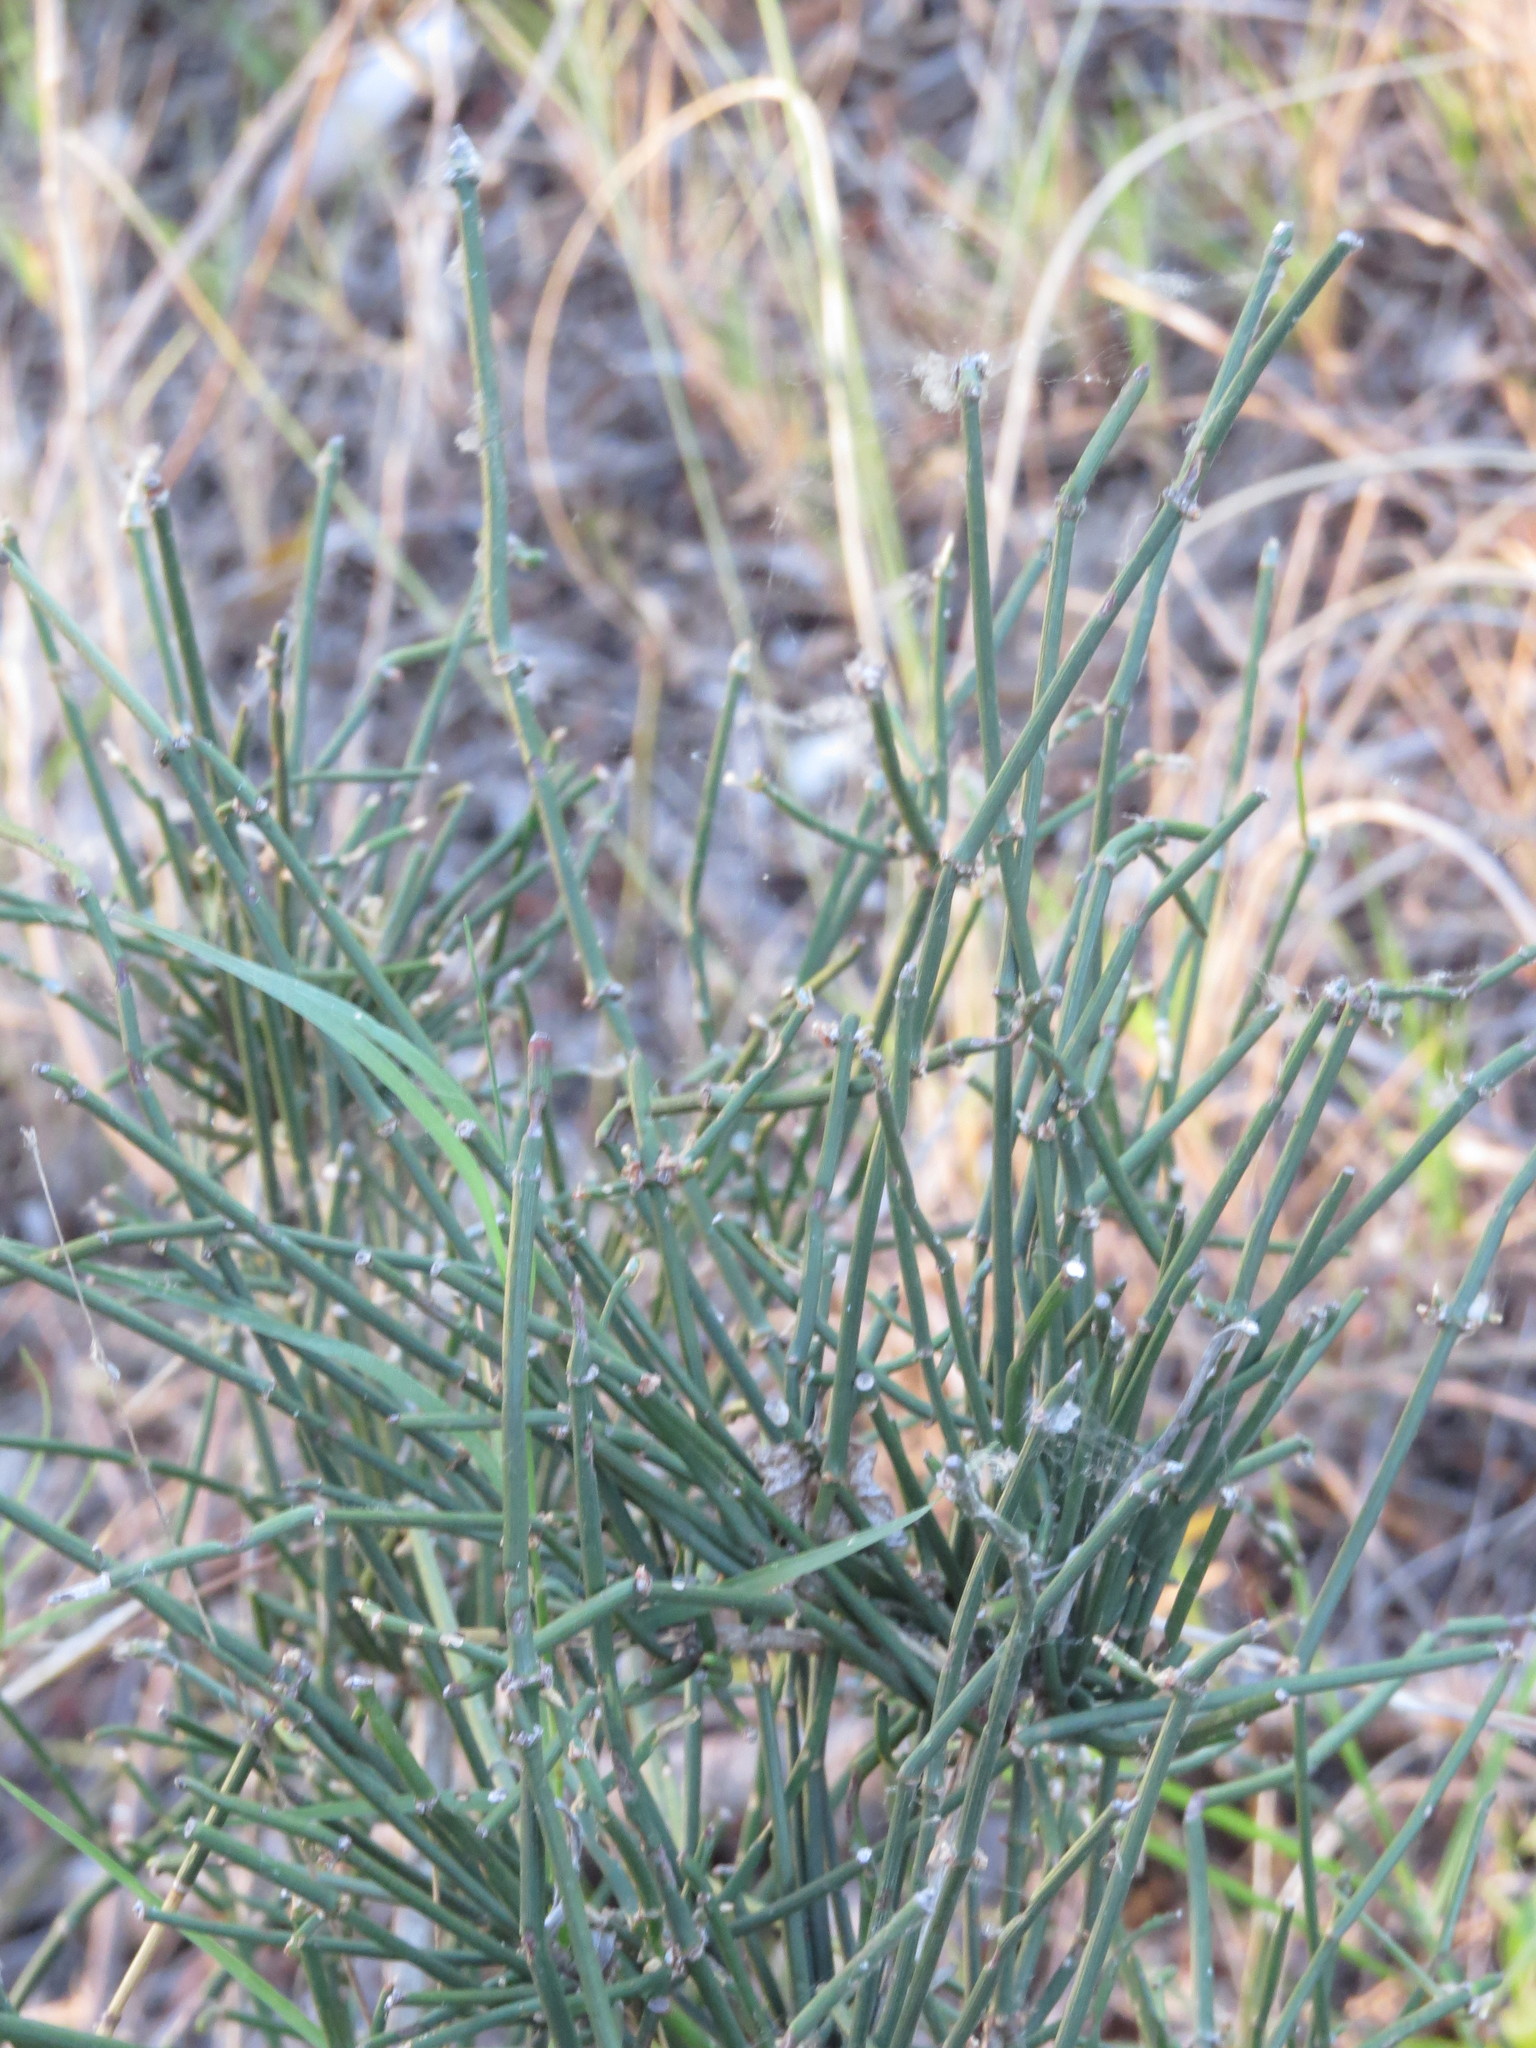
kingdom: Plantae
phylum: Tracheophyta
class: Gnetopsida
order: Ephedrales
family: Ephedraceae
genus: Ephedra
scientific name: Ephedra tweedieana
